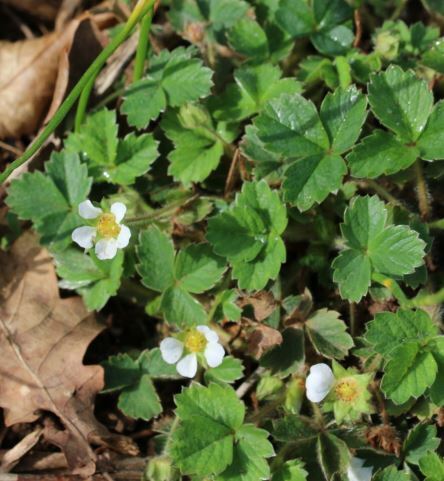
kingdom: Plantae
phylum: Tracheophyta
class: Magnoliopsida
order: Rosales
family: Rosaceae
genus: Potentilla
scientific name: Potentilla sterilis
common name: Barren strawberry
